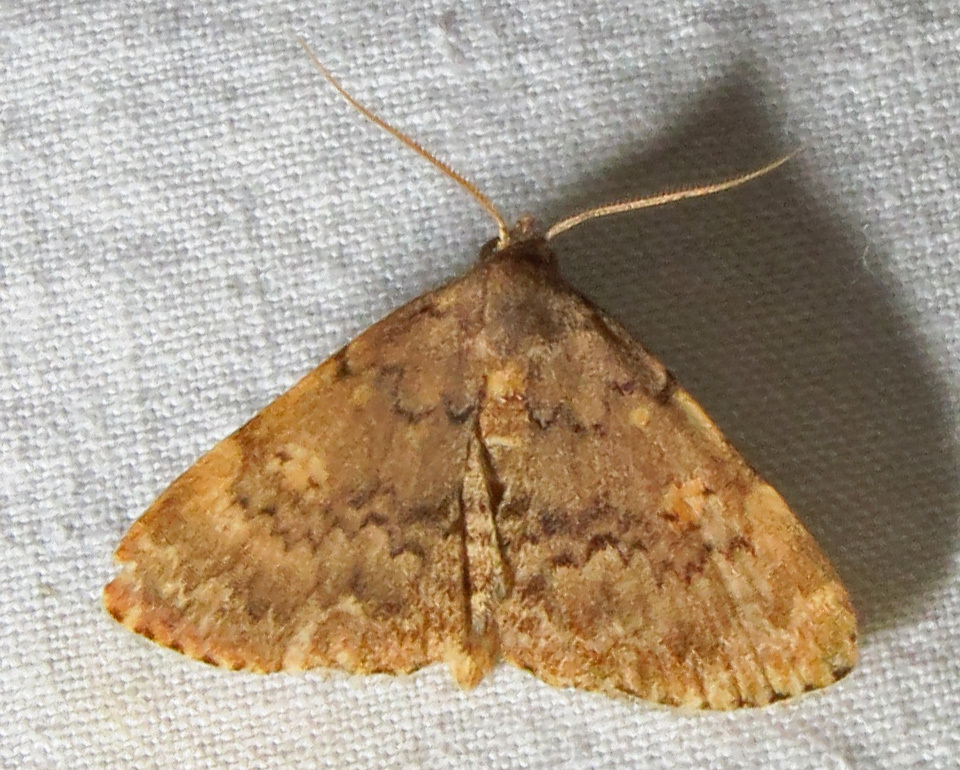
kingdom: Animalia
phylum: Arthropoda
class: Insecta
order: Lepidoptera
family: Erebidae
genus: Idia
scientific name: Idia aemula
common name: Common idia moth
